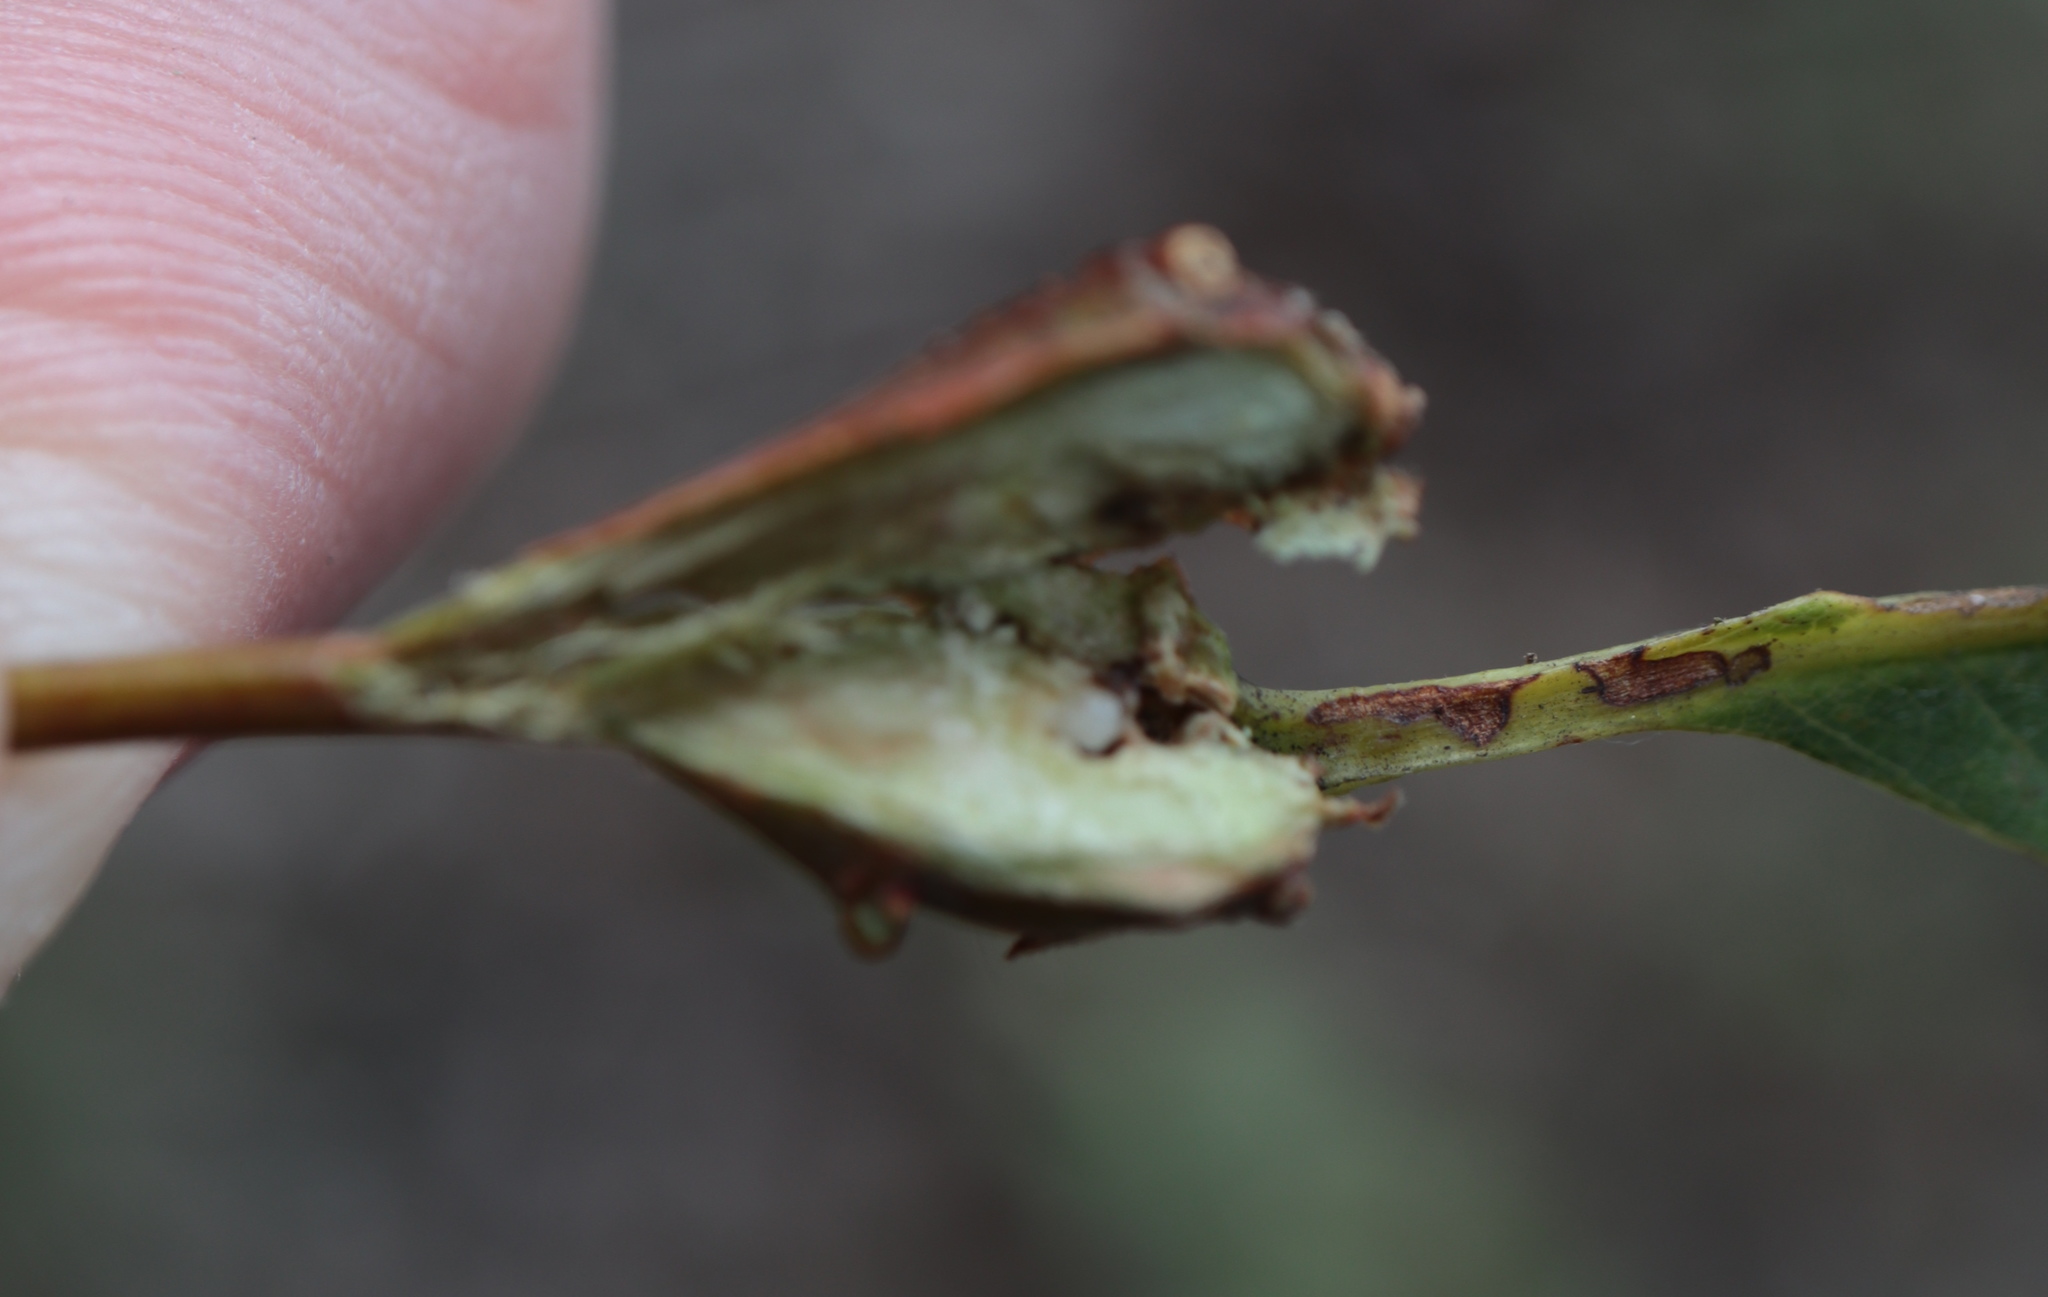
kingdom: Animalia
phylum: Arthropoda
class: Insecta
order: Hymenoptera
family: Cynipidae
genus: Callirhytis
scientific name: Callirhytis clavula
